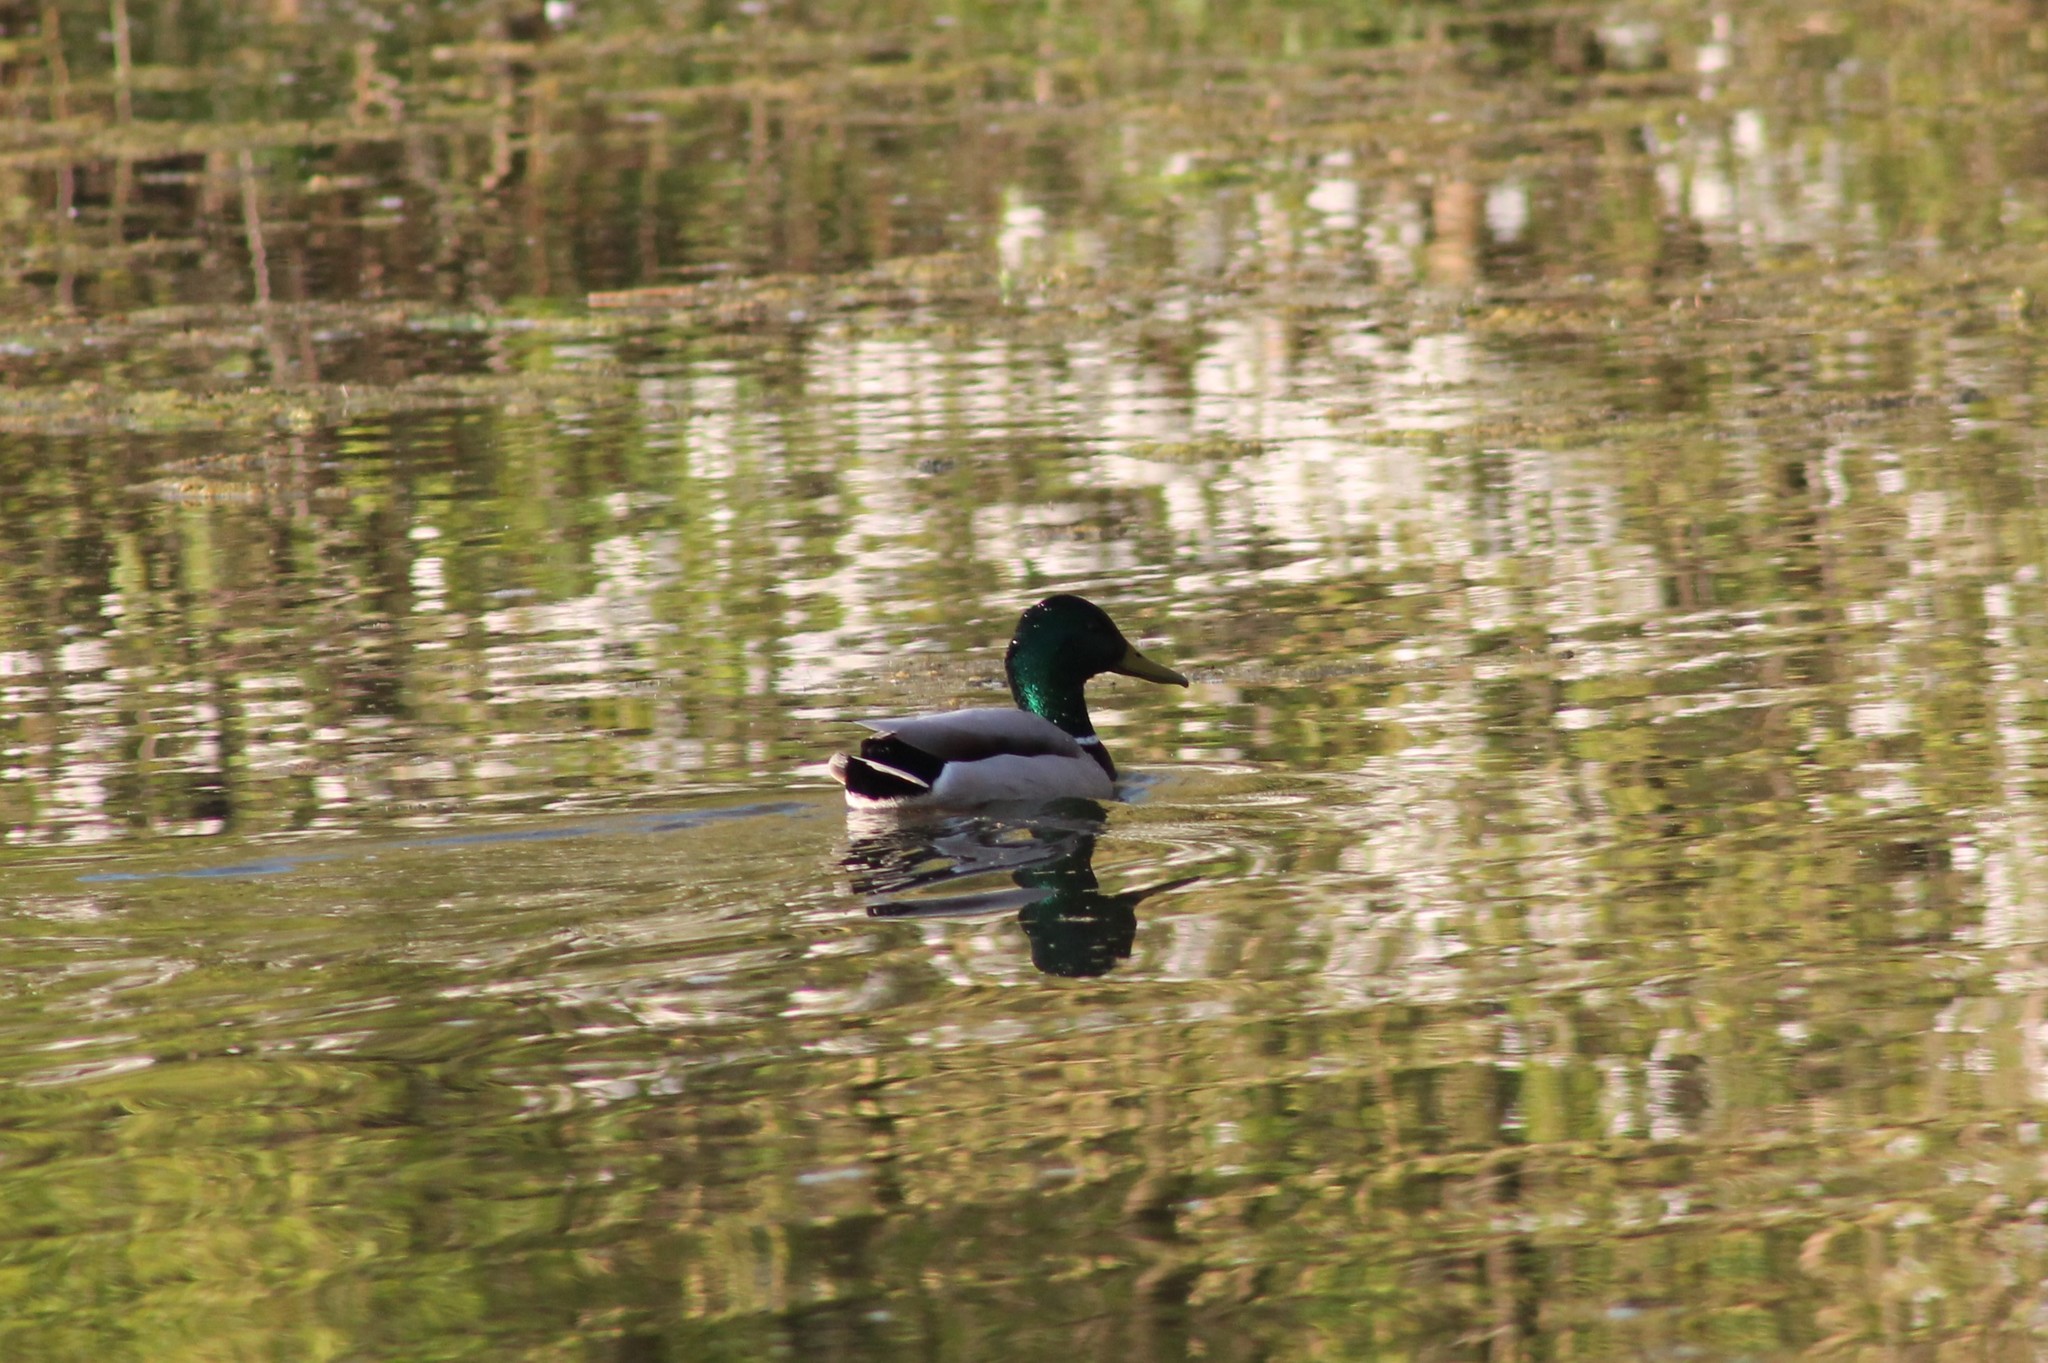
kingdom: Animalia
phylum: Chordata
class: Aves
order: Anseriformes
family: Anatidae
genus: Anas
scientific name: Anas platyrhynchos
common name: Mallard
